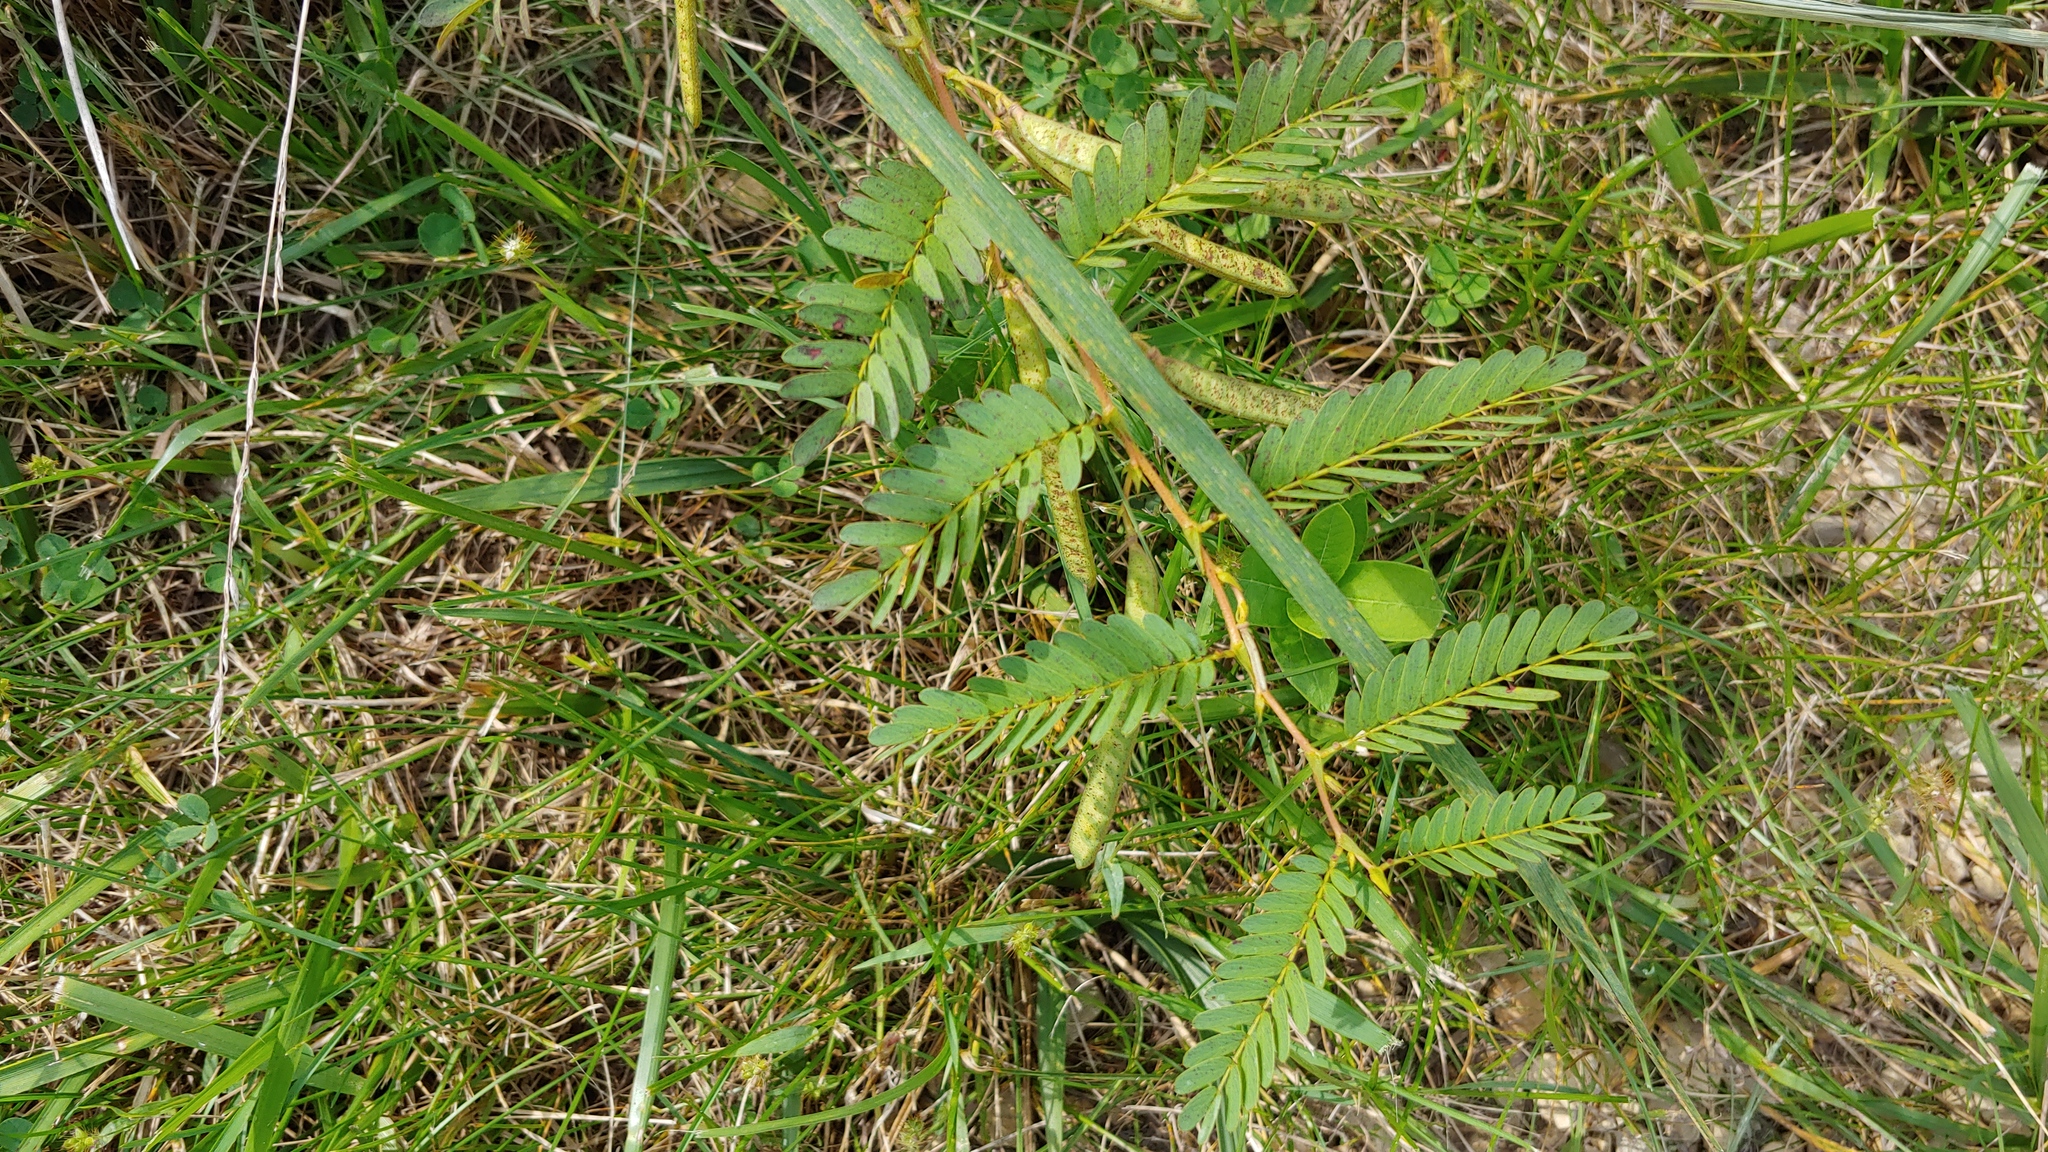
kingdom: Plantae
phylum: Tracheophyta
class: Magnoliopsida
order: Fabales
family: Fabaceae
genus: Chamaecrista
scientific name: Chamaecrista fasciculata
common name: Golden cassia
